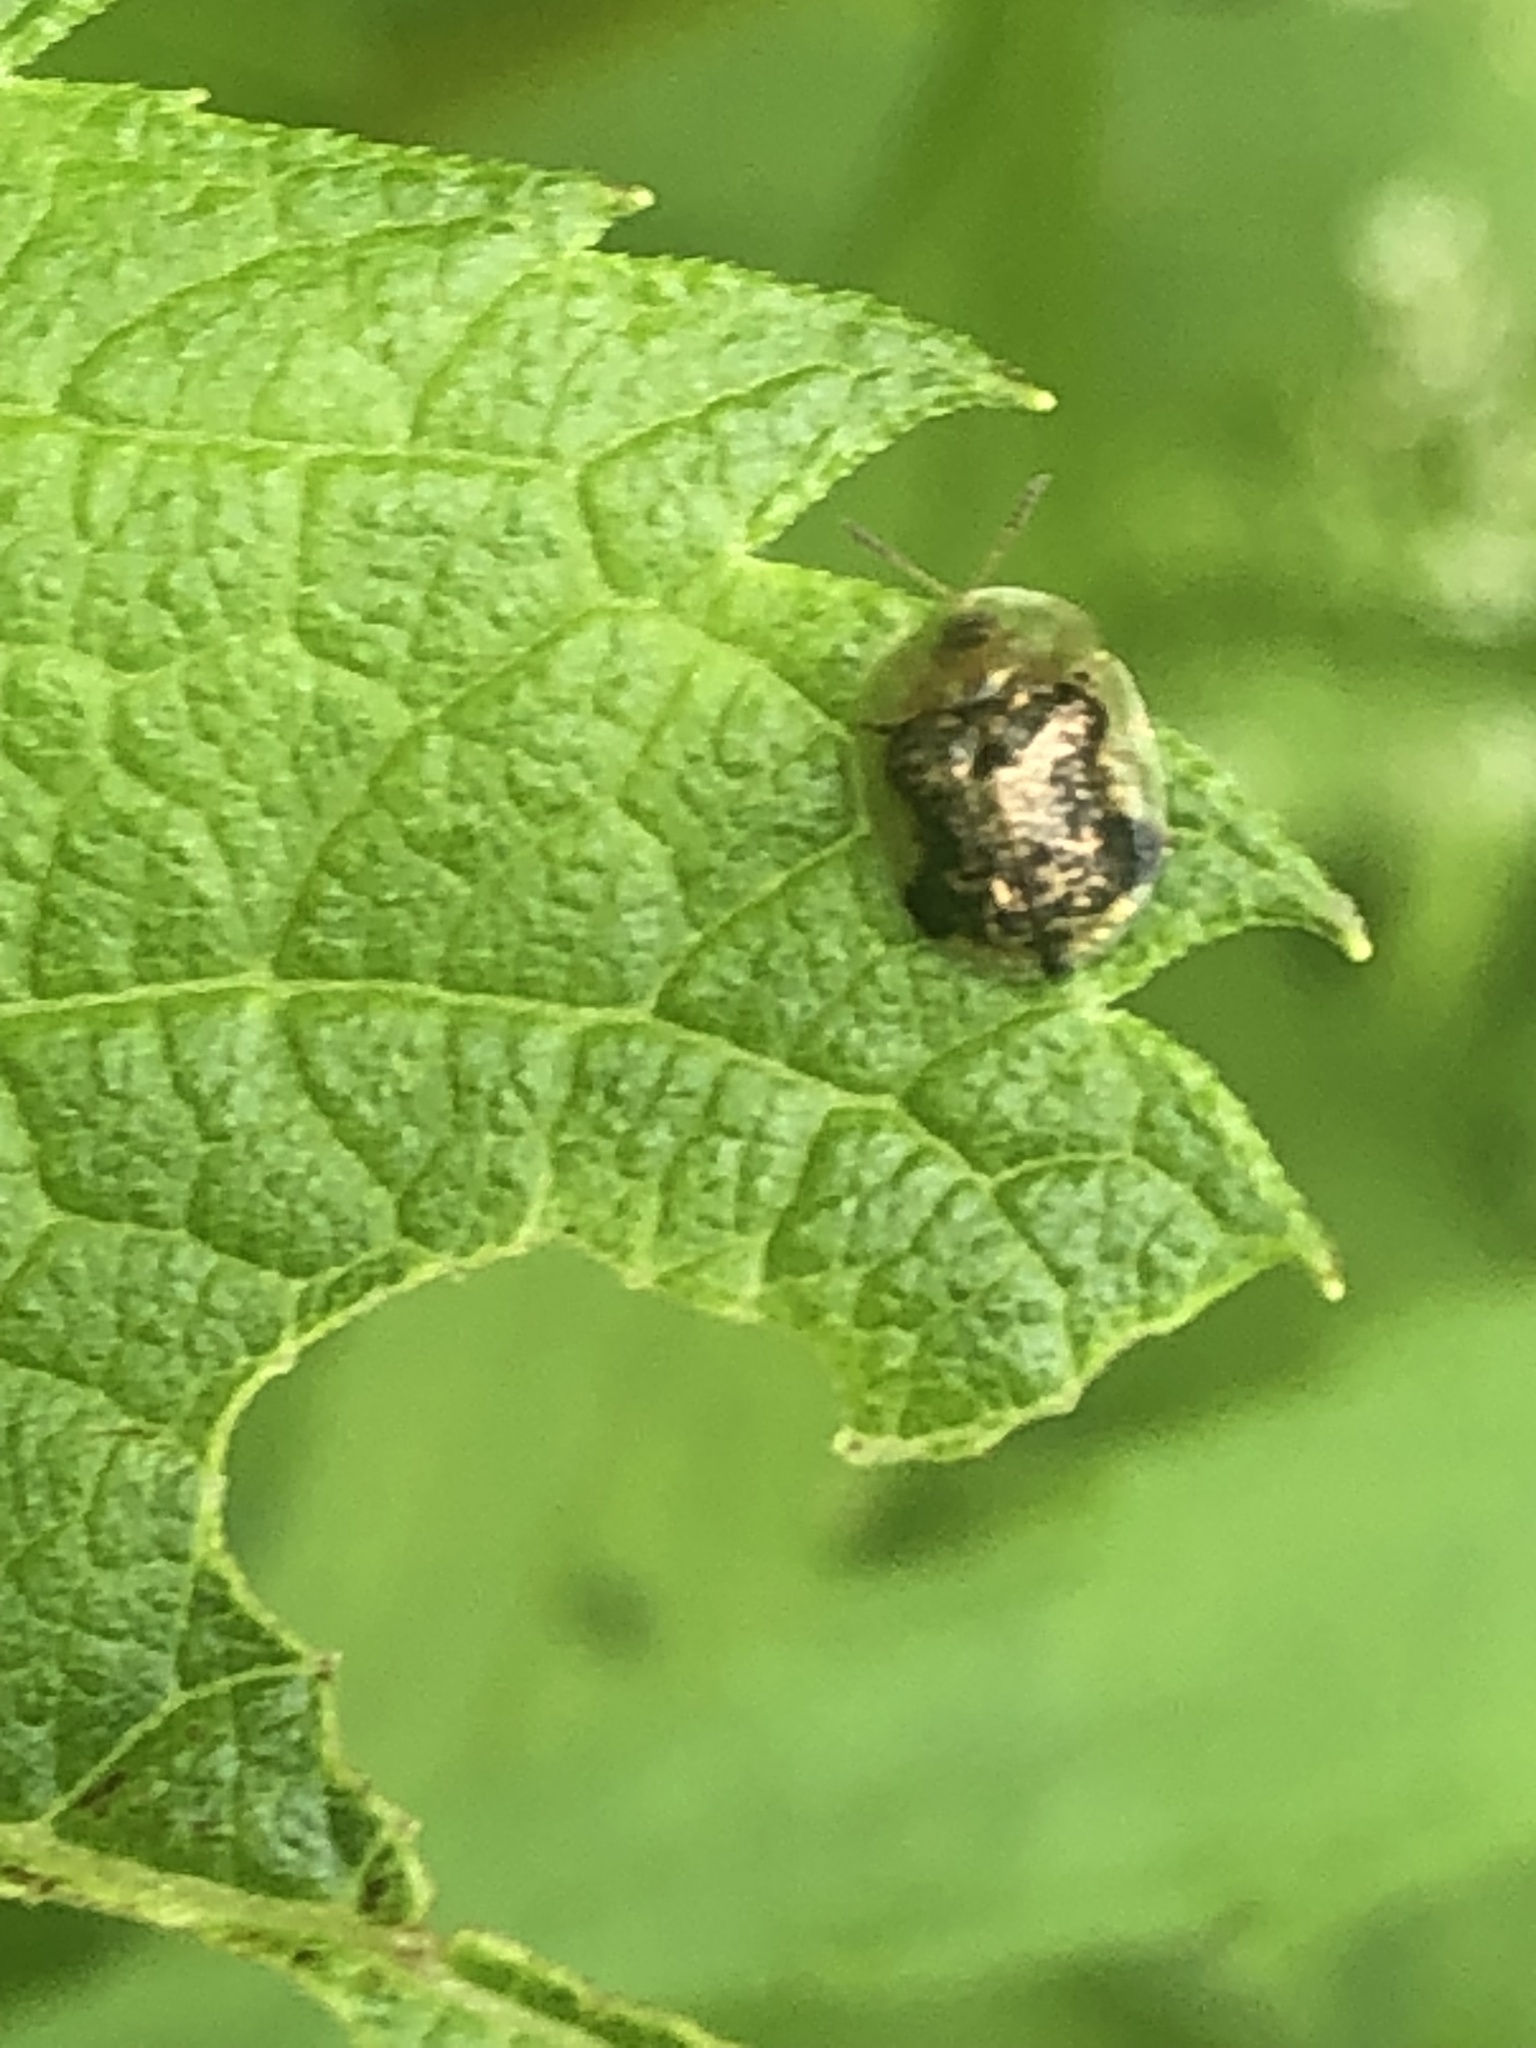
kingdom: Animalia
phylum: Arthropoda
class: Insecta
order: Coleoptera
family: Chrysomelidae
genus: Cassida
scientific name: Cassida piperata
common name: Small tortoise beetle
